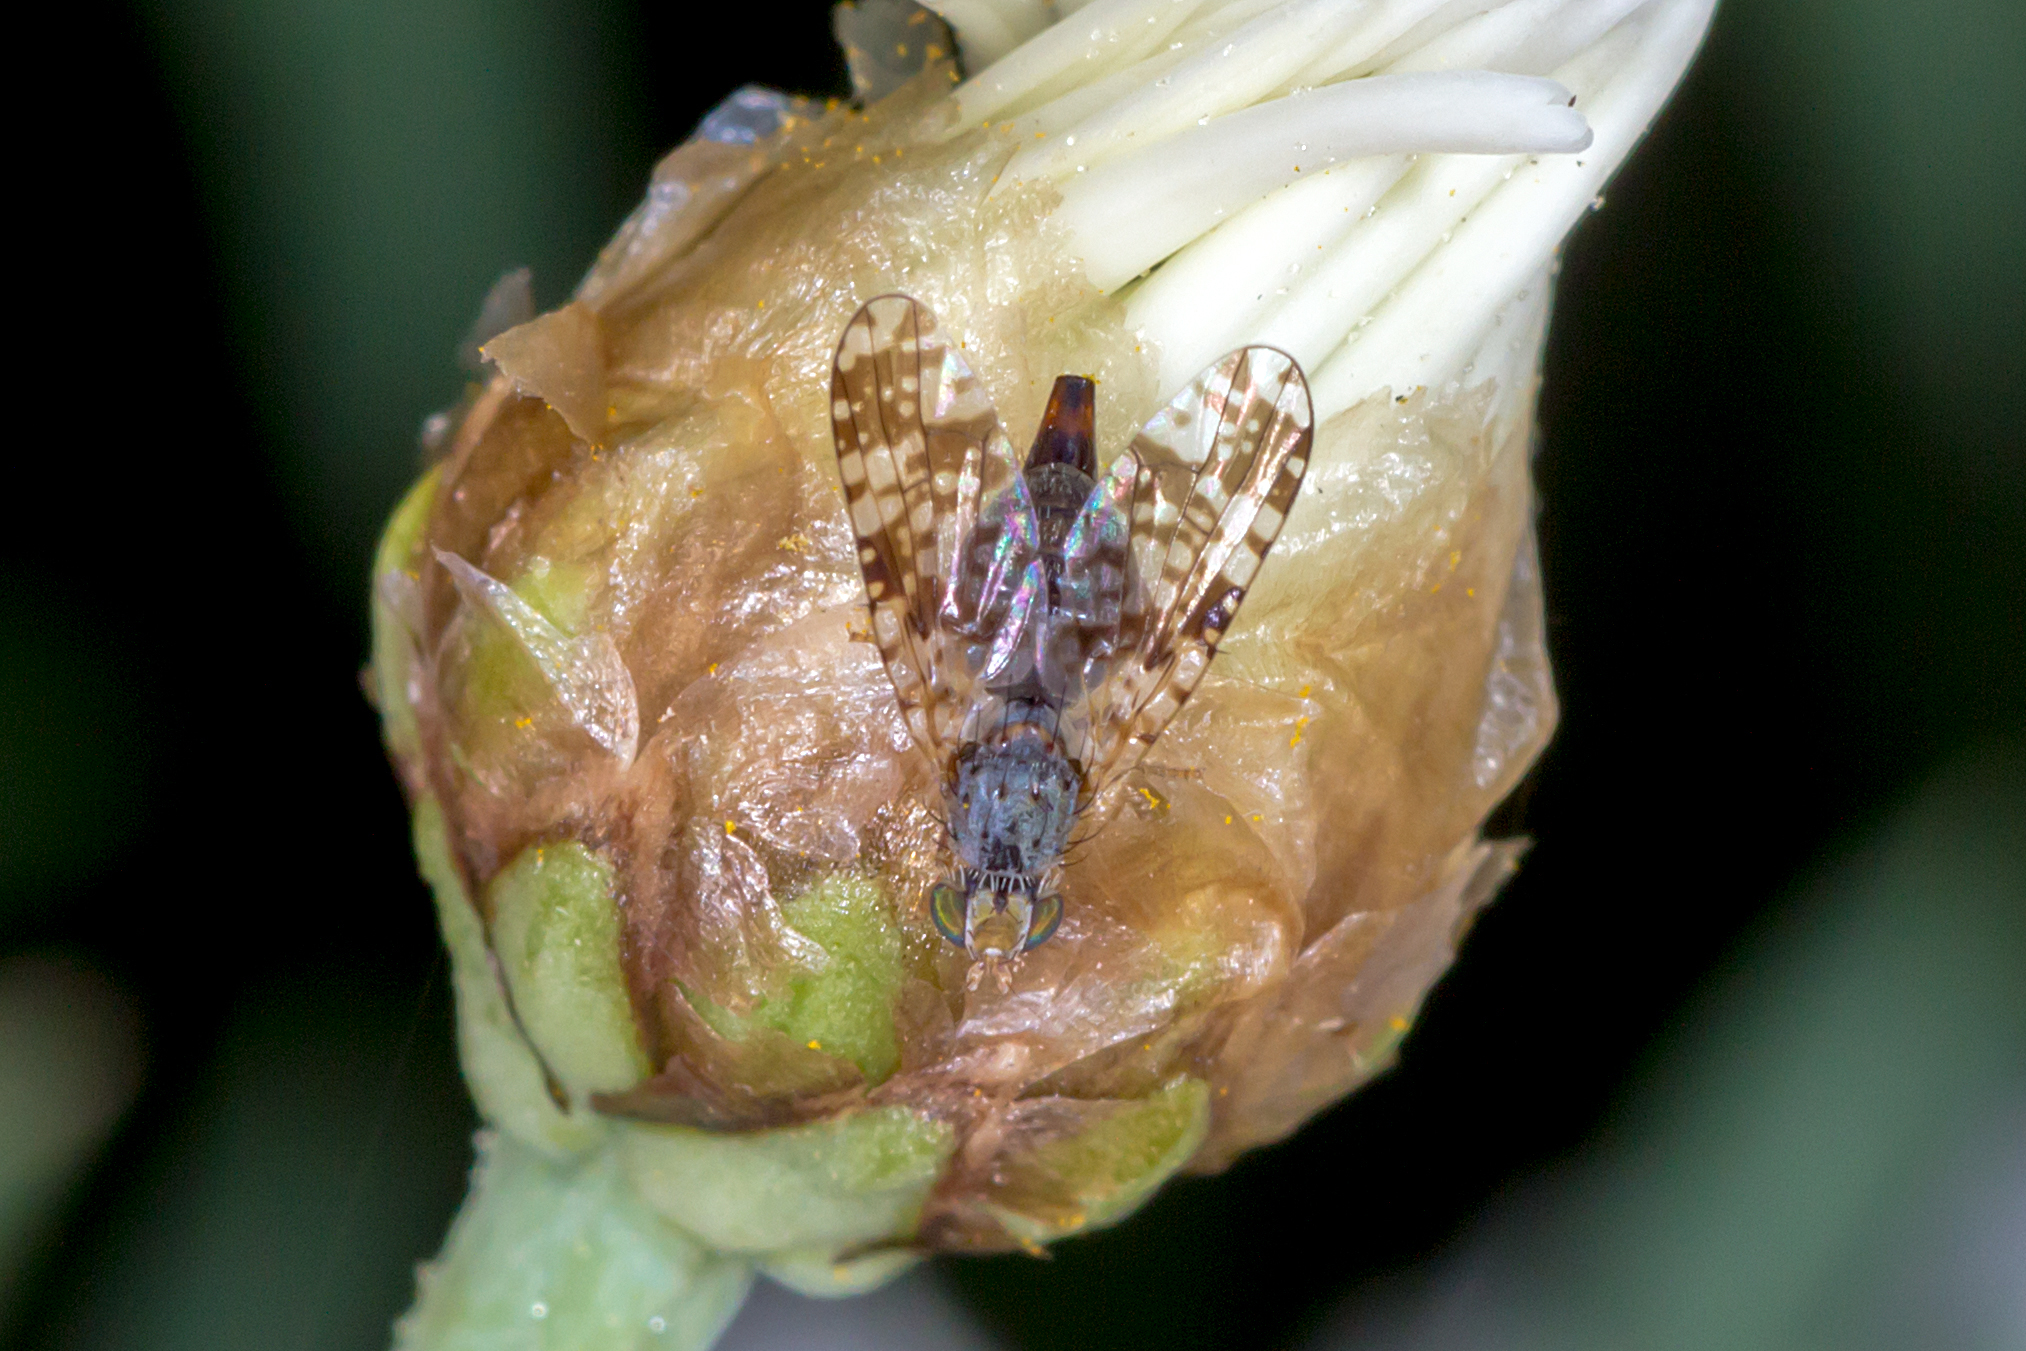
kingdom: Animalia
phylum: Arthropoda
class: Insecta
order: Diptera
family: Tephritidae
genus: Austrotephritis
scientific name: Austrotephritis
